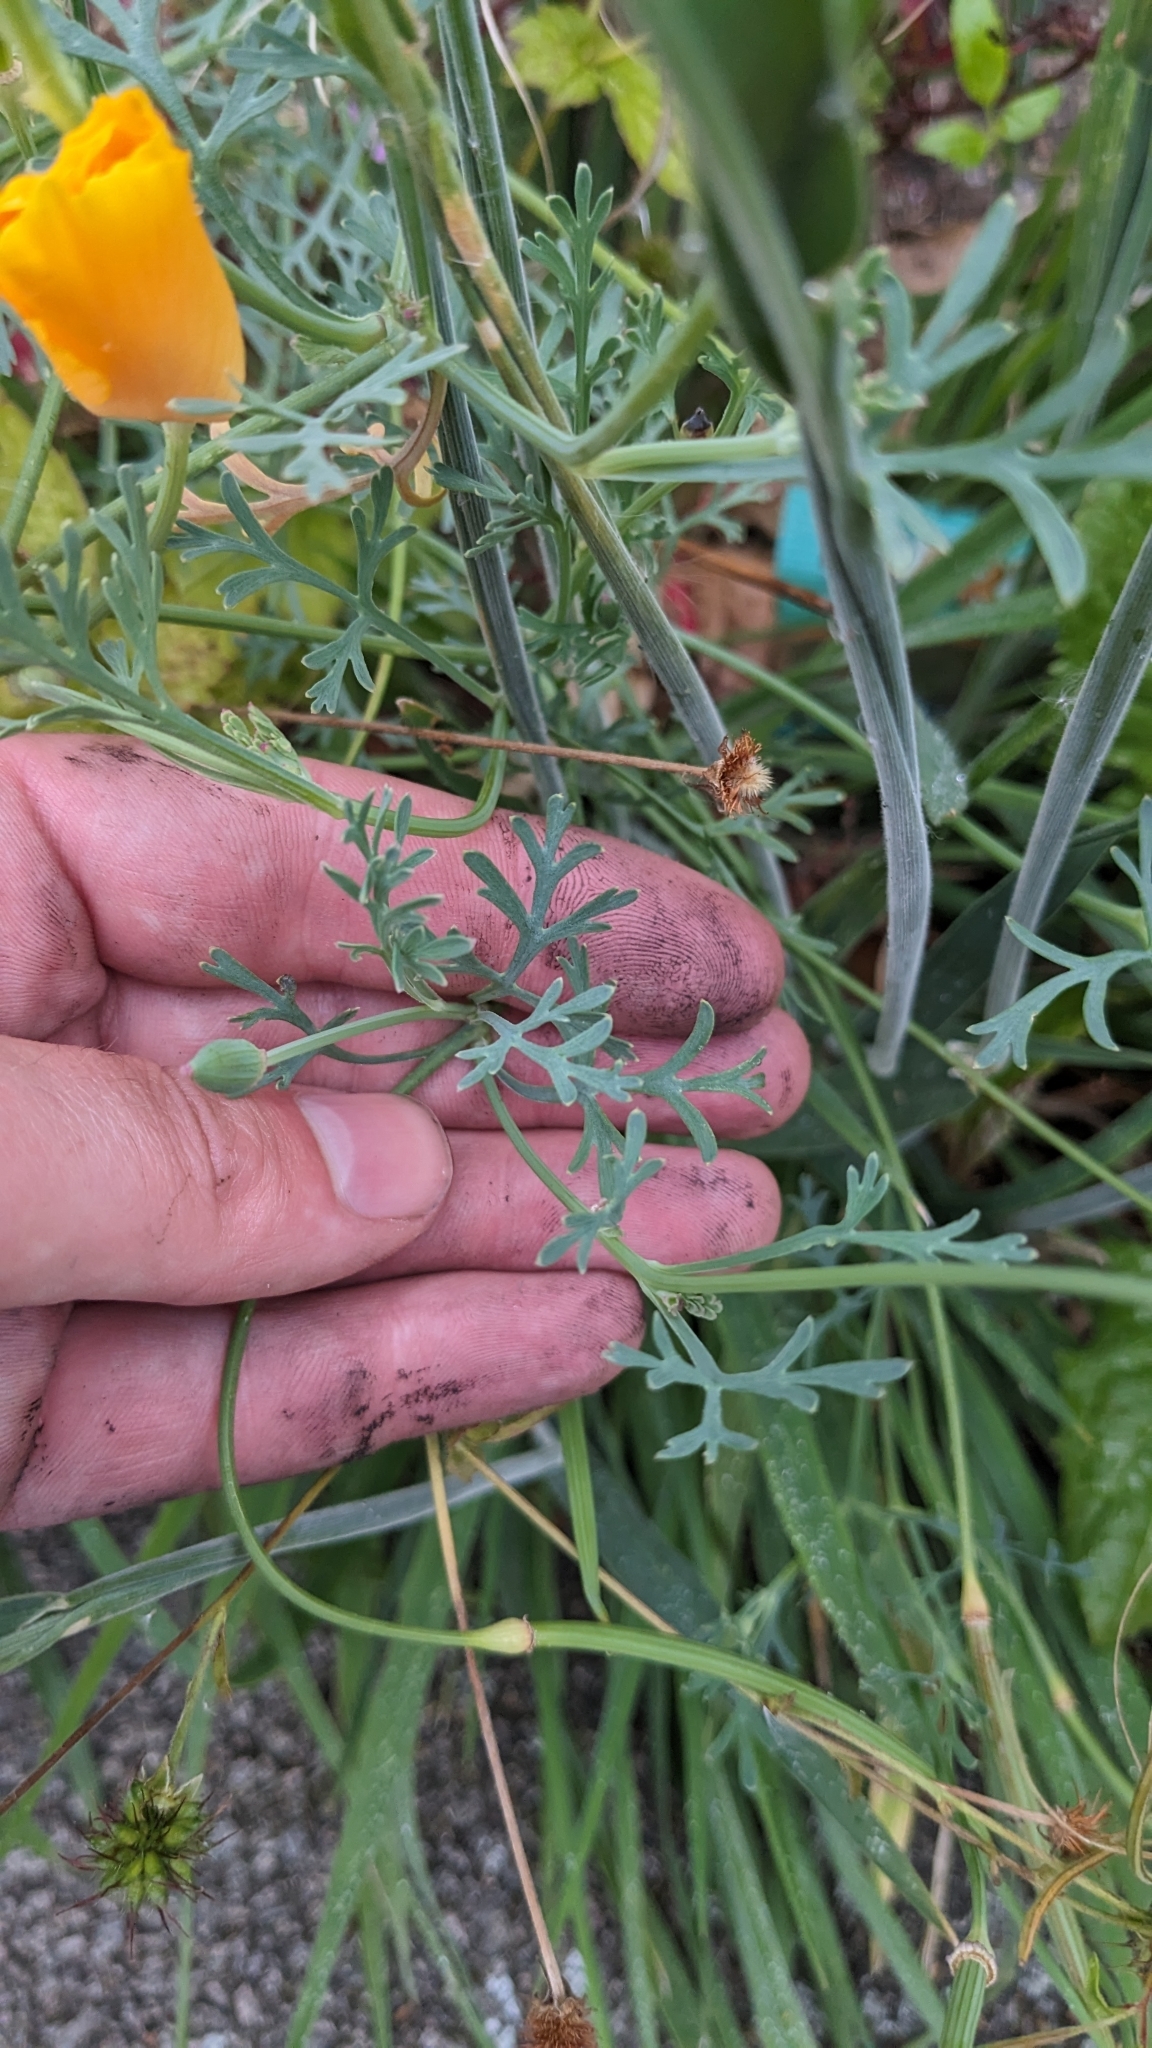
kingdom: Plantae
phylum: Tracheophyta
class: Magnoliopsida
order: Ranunculales
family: Papaveraceae
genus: Eschscholzia
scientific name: Eschscholzia californica
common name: California poppy
